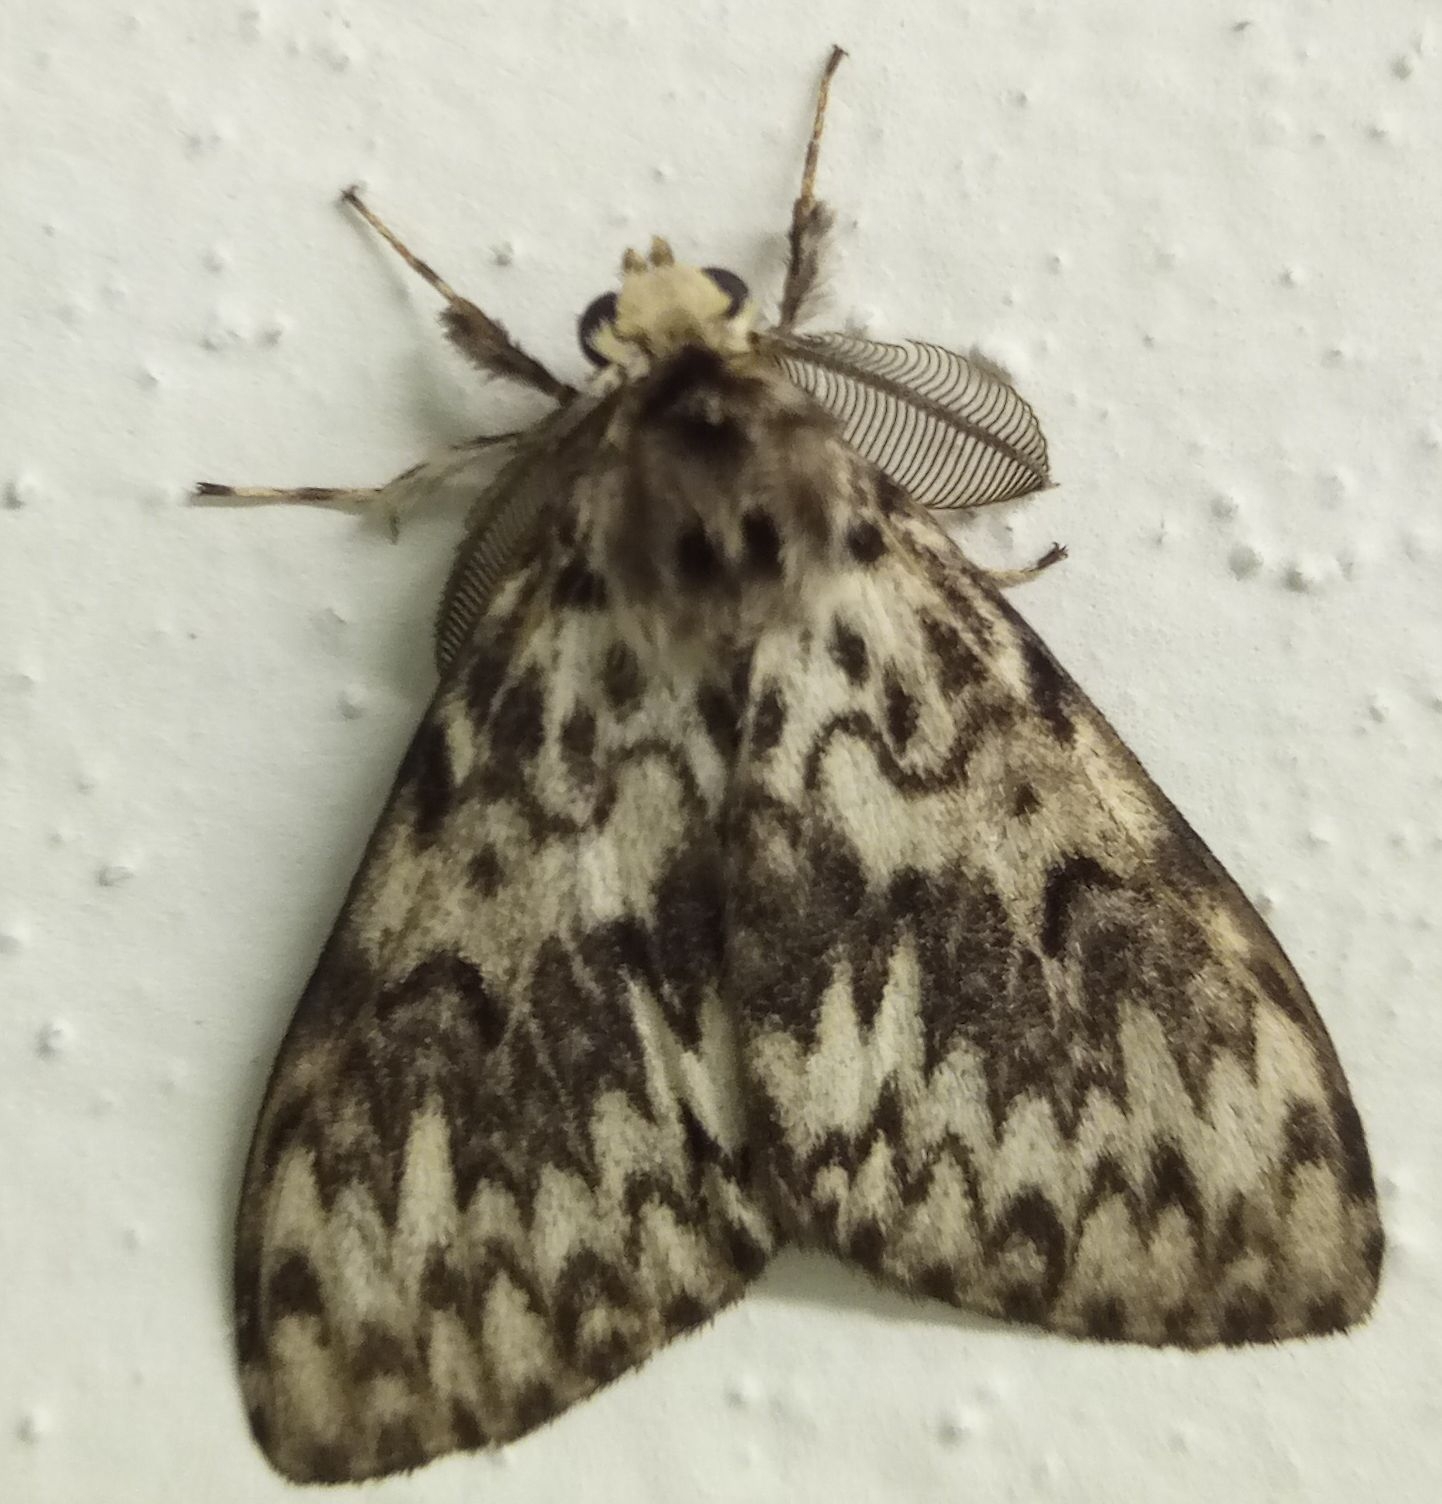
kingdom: Animalia
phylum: Arthropoda
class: Insecta
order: Lepidoptera
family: Erebidae
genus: Lymantria
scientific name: Lymantria monacha
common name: Black arches
